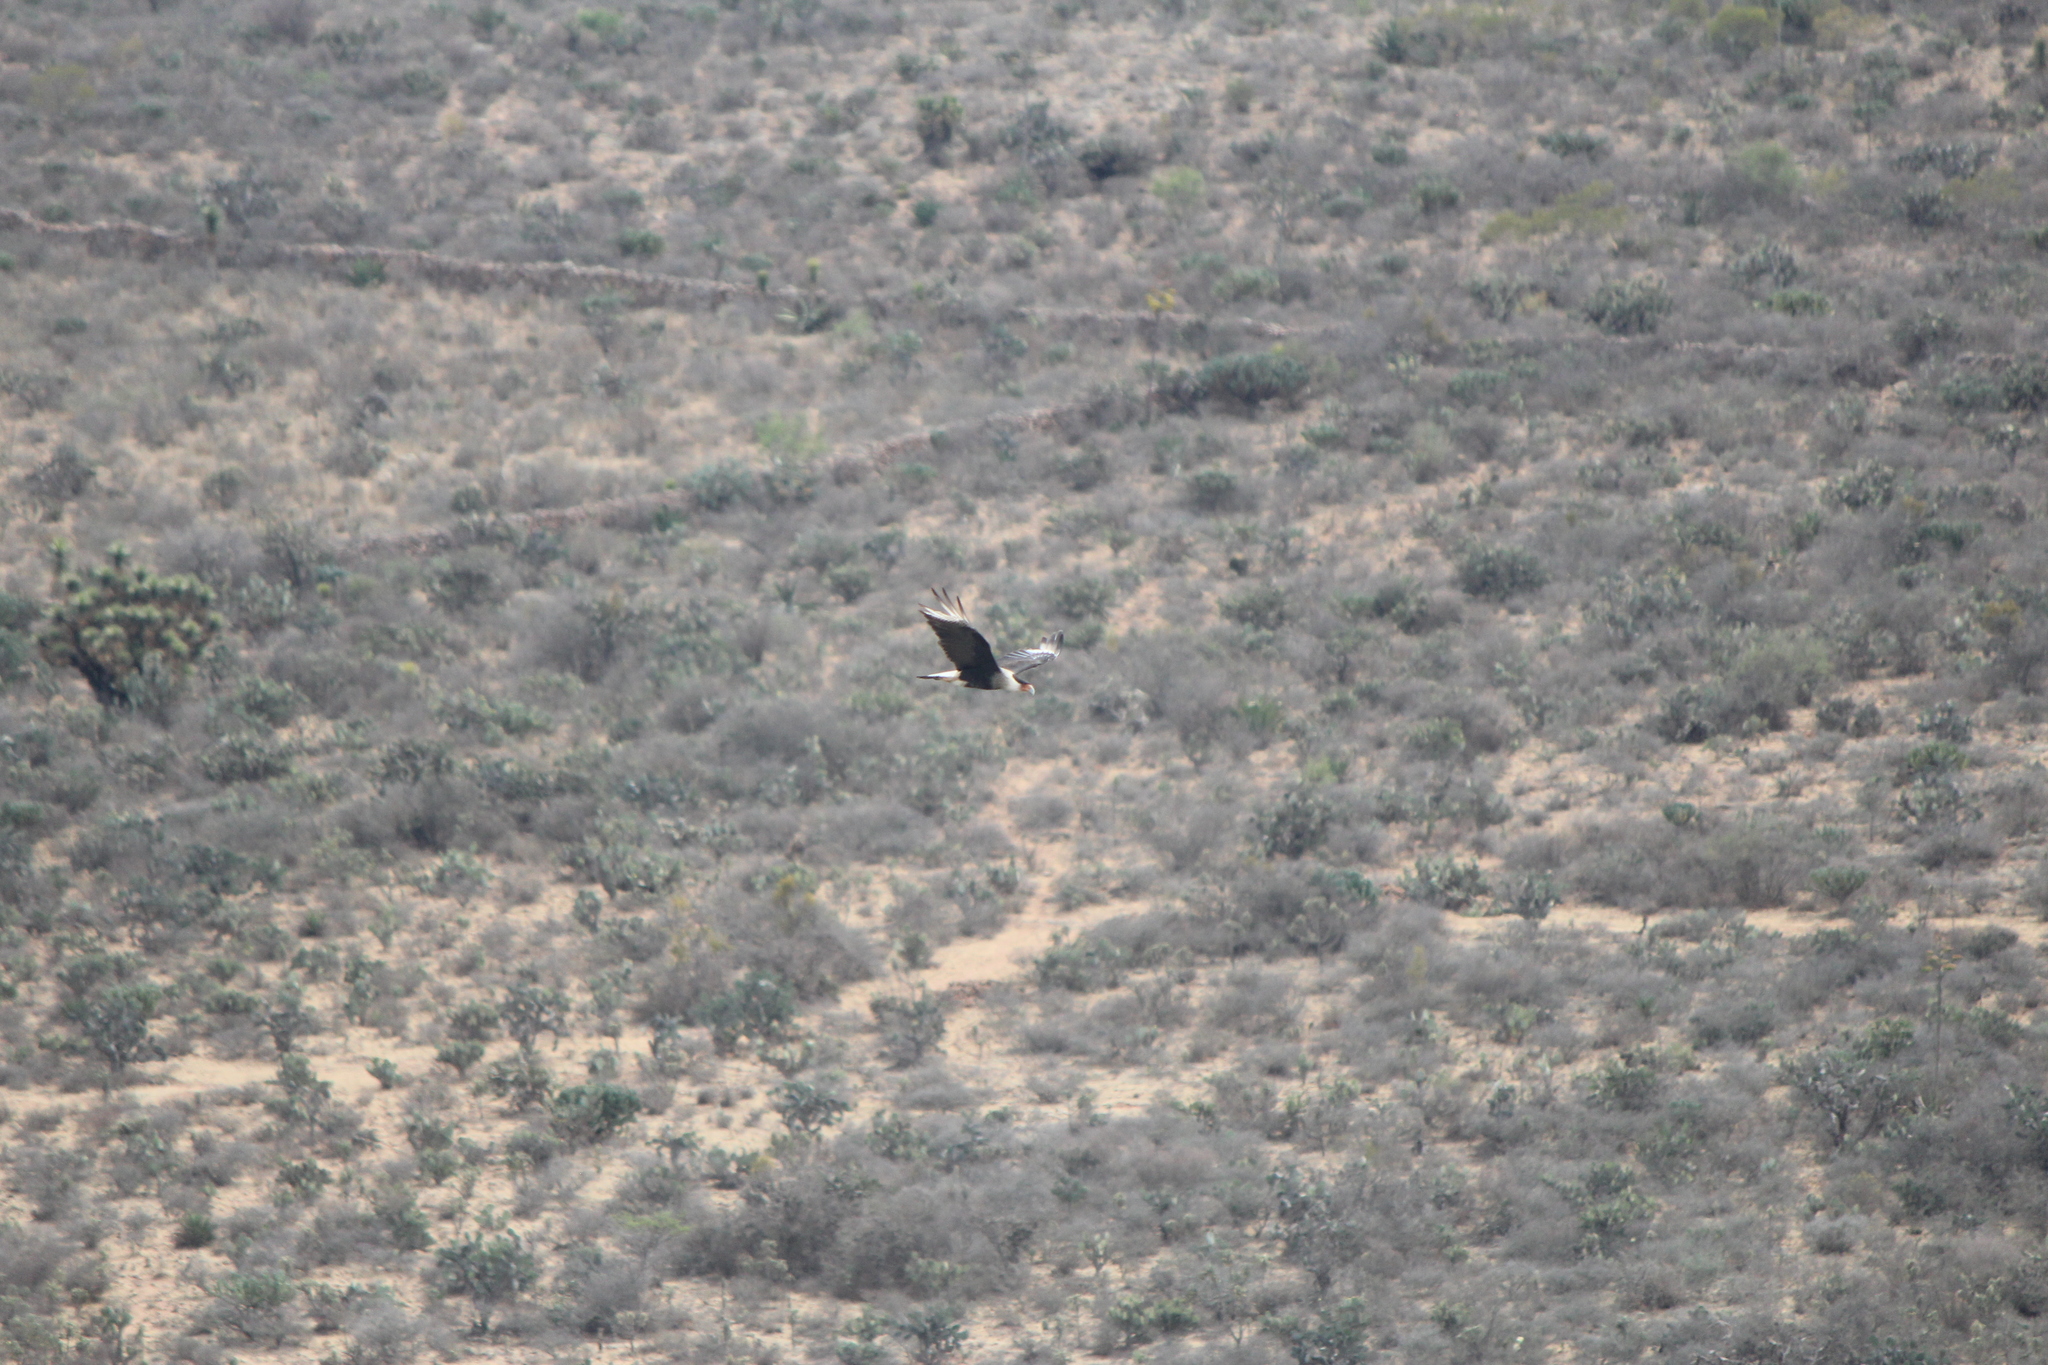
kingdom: Animalia
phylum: Chordata
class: Aves
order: Falconiformes
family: Falconidae
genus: Caracara
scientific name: Caracara plancus
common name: Southern caracara
